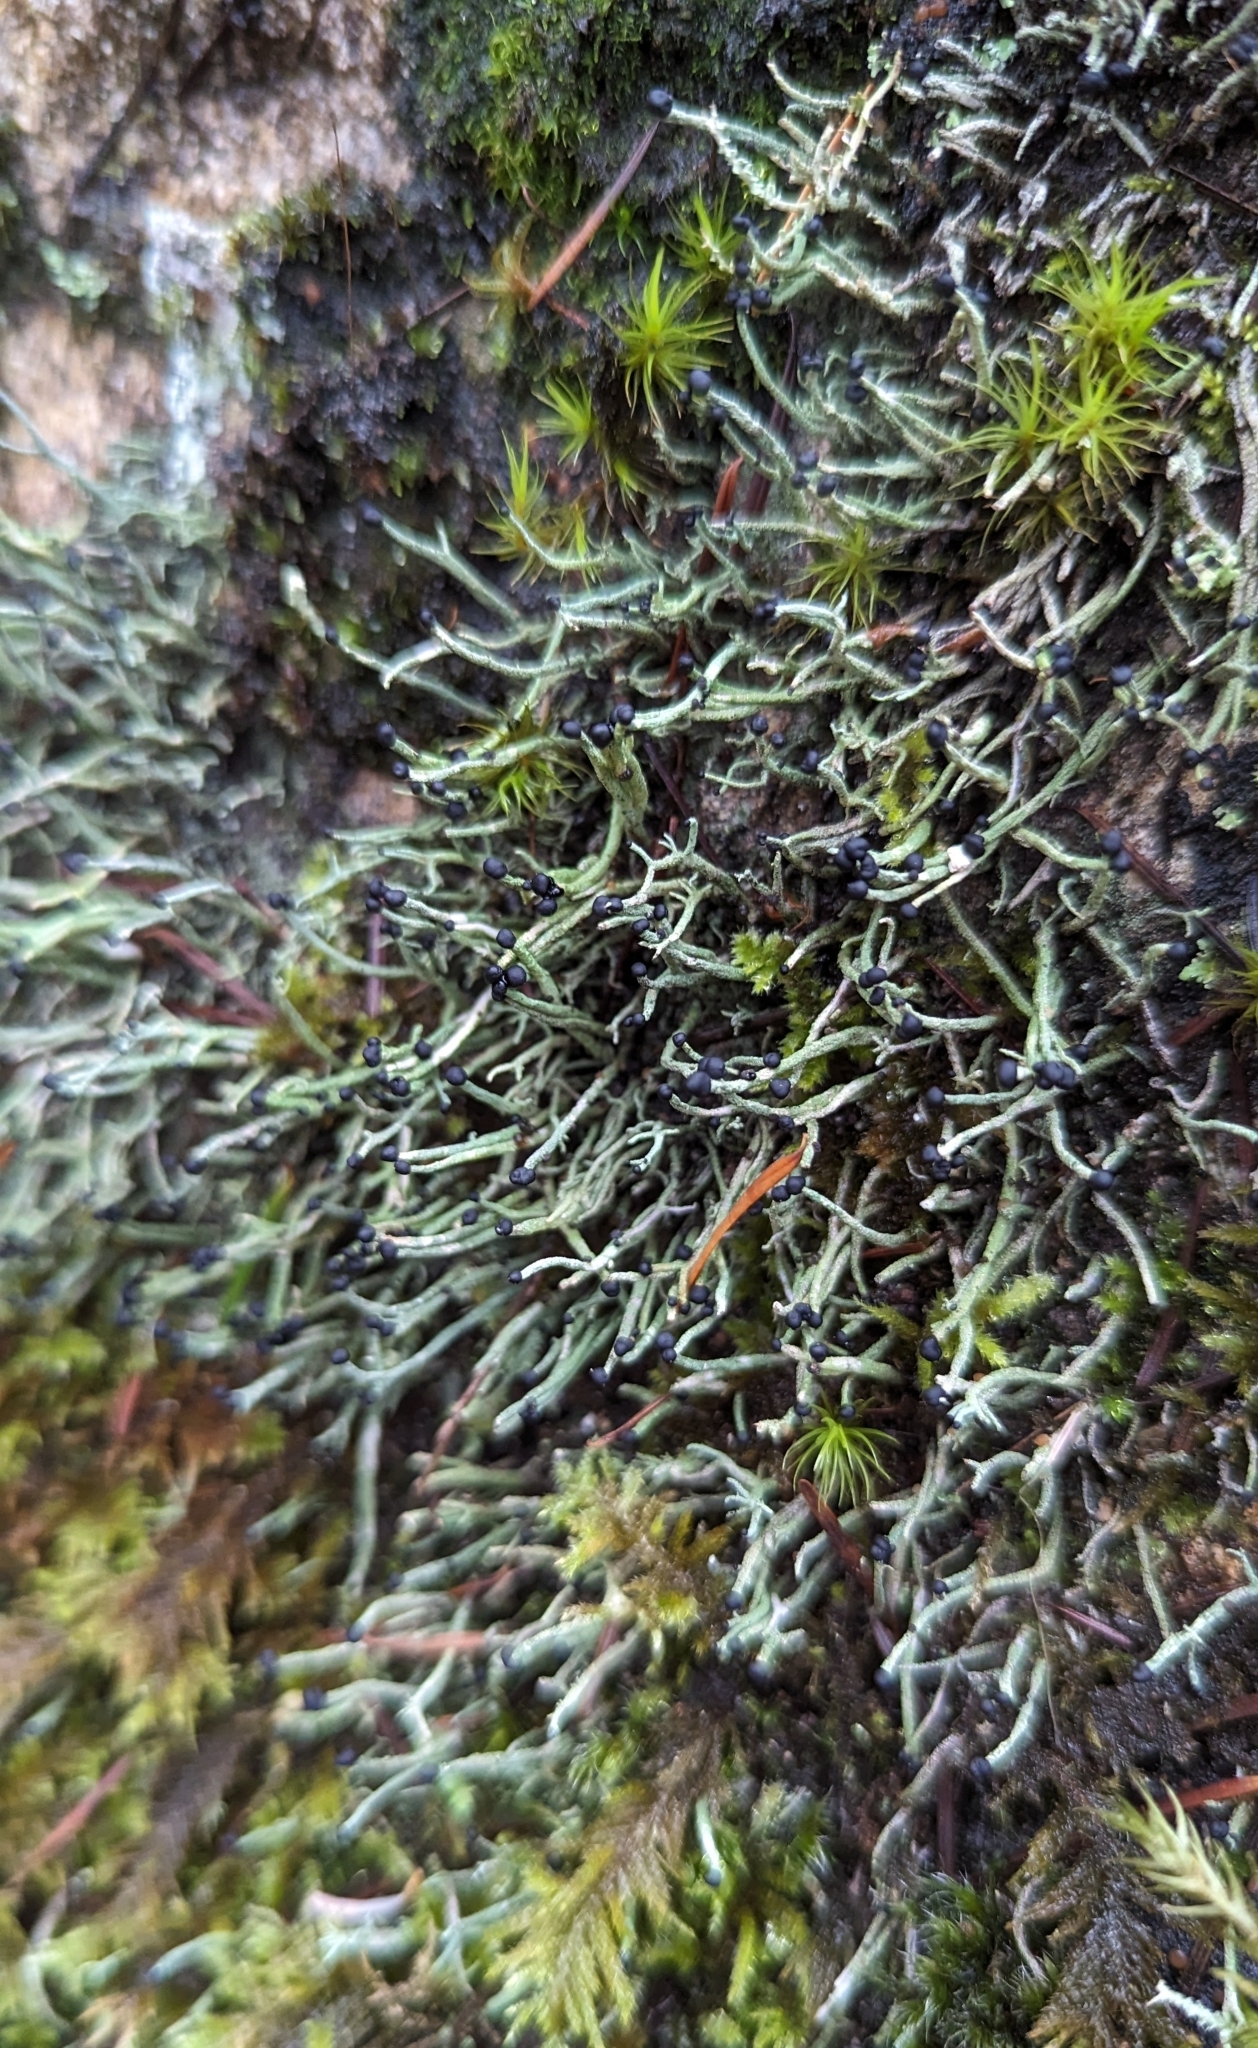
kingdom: Fungi
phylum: Ascomycota
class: Lecanoromycetes
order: Lecanorales
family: Cladoniaceae
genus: Pilophorus
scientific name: Pilophorus acicularis
